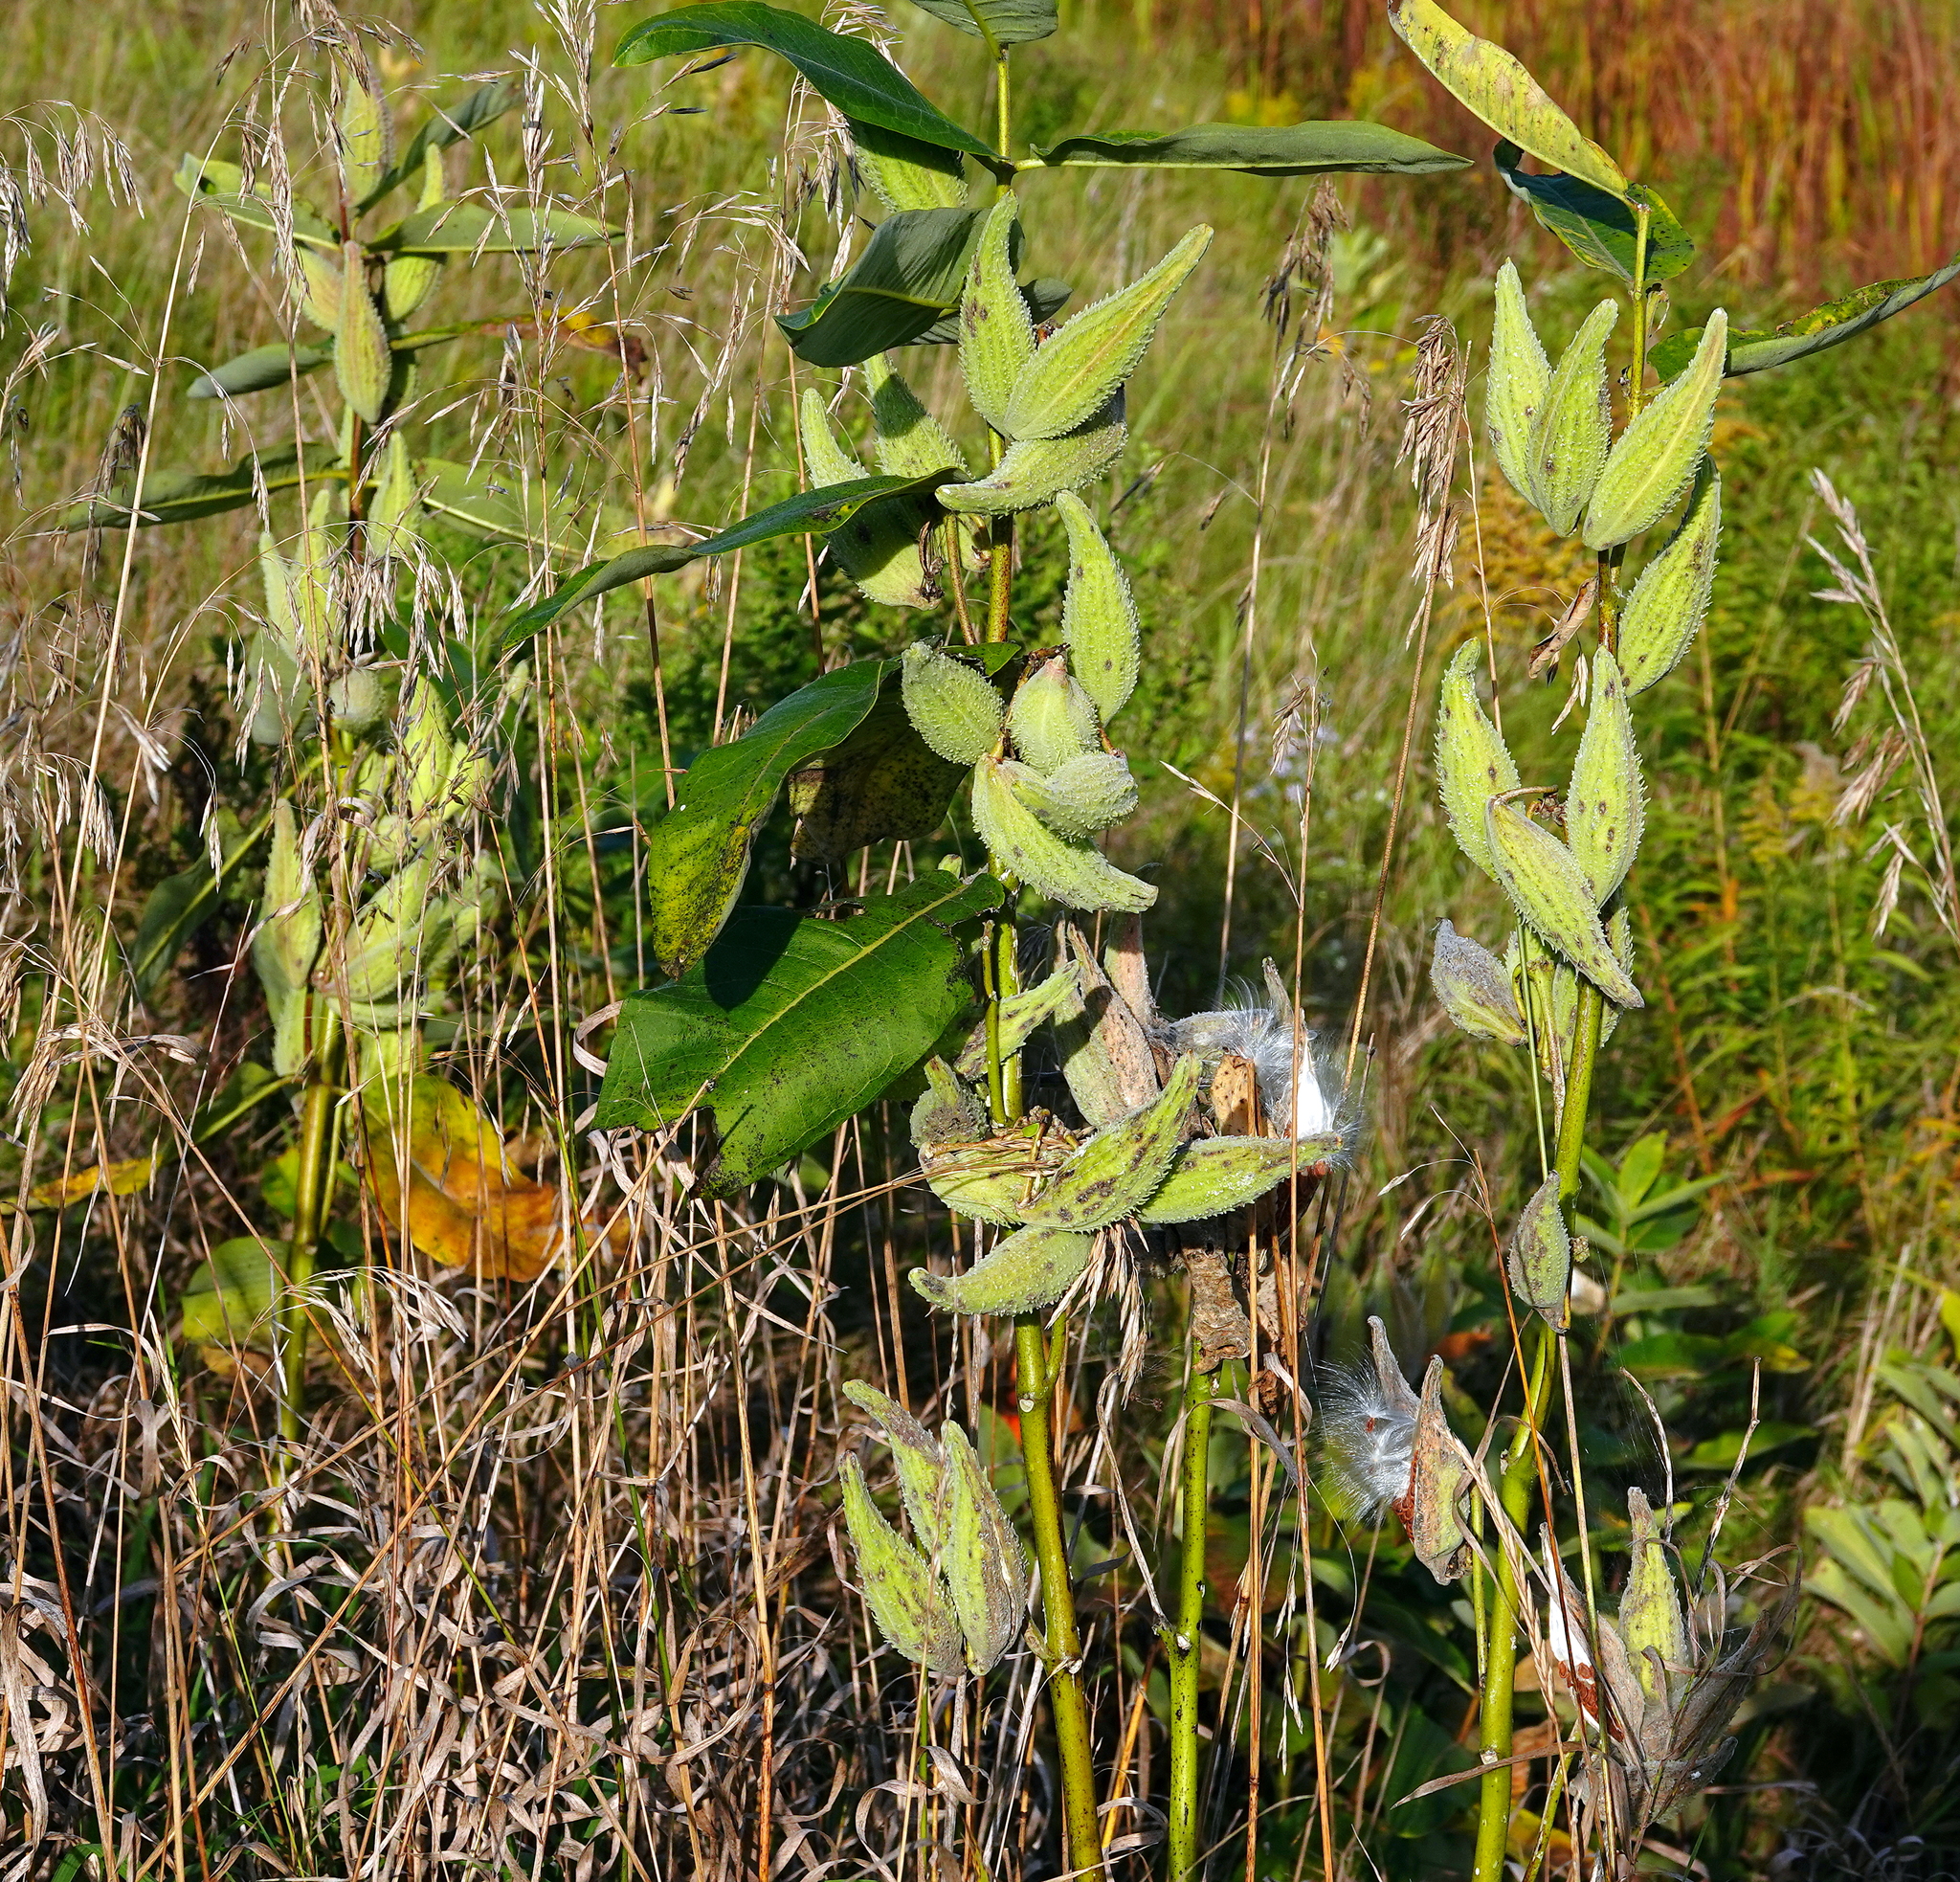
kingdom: Plantae
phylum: Tracheophyta
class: Magnoliopsida
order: Gentianales
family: Apocynaceae
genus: Asclepias
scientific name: Asclepias syriaca
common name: Common milkweed
